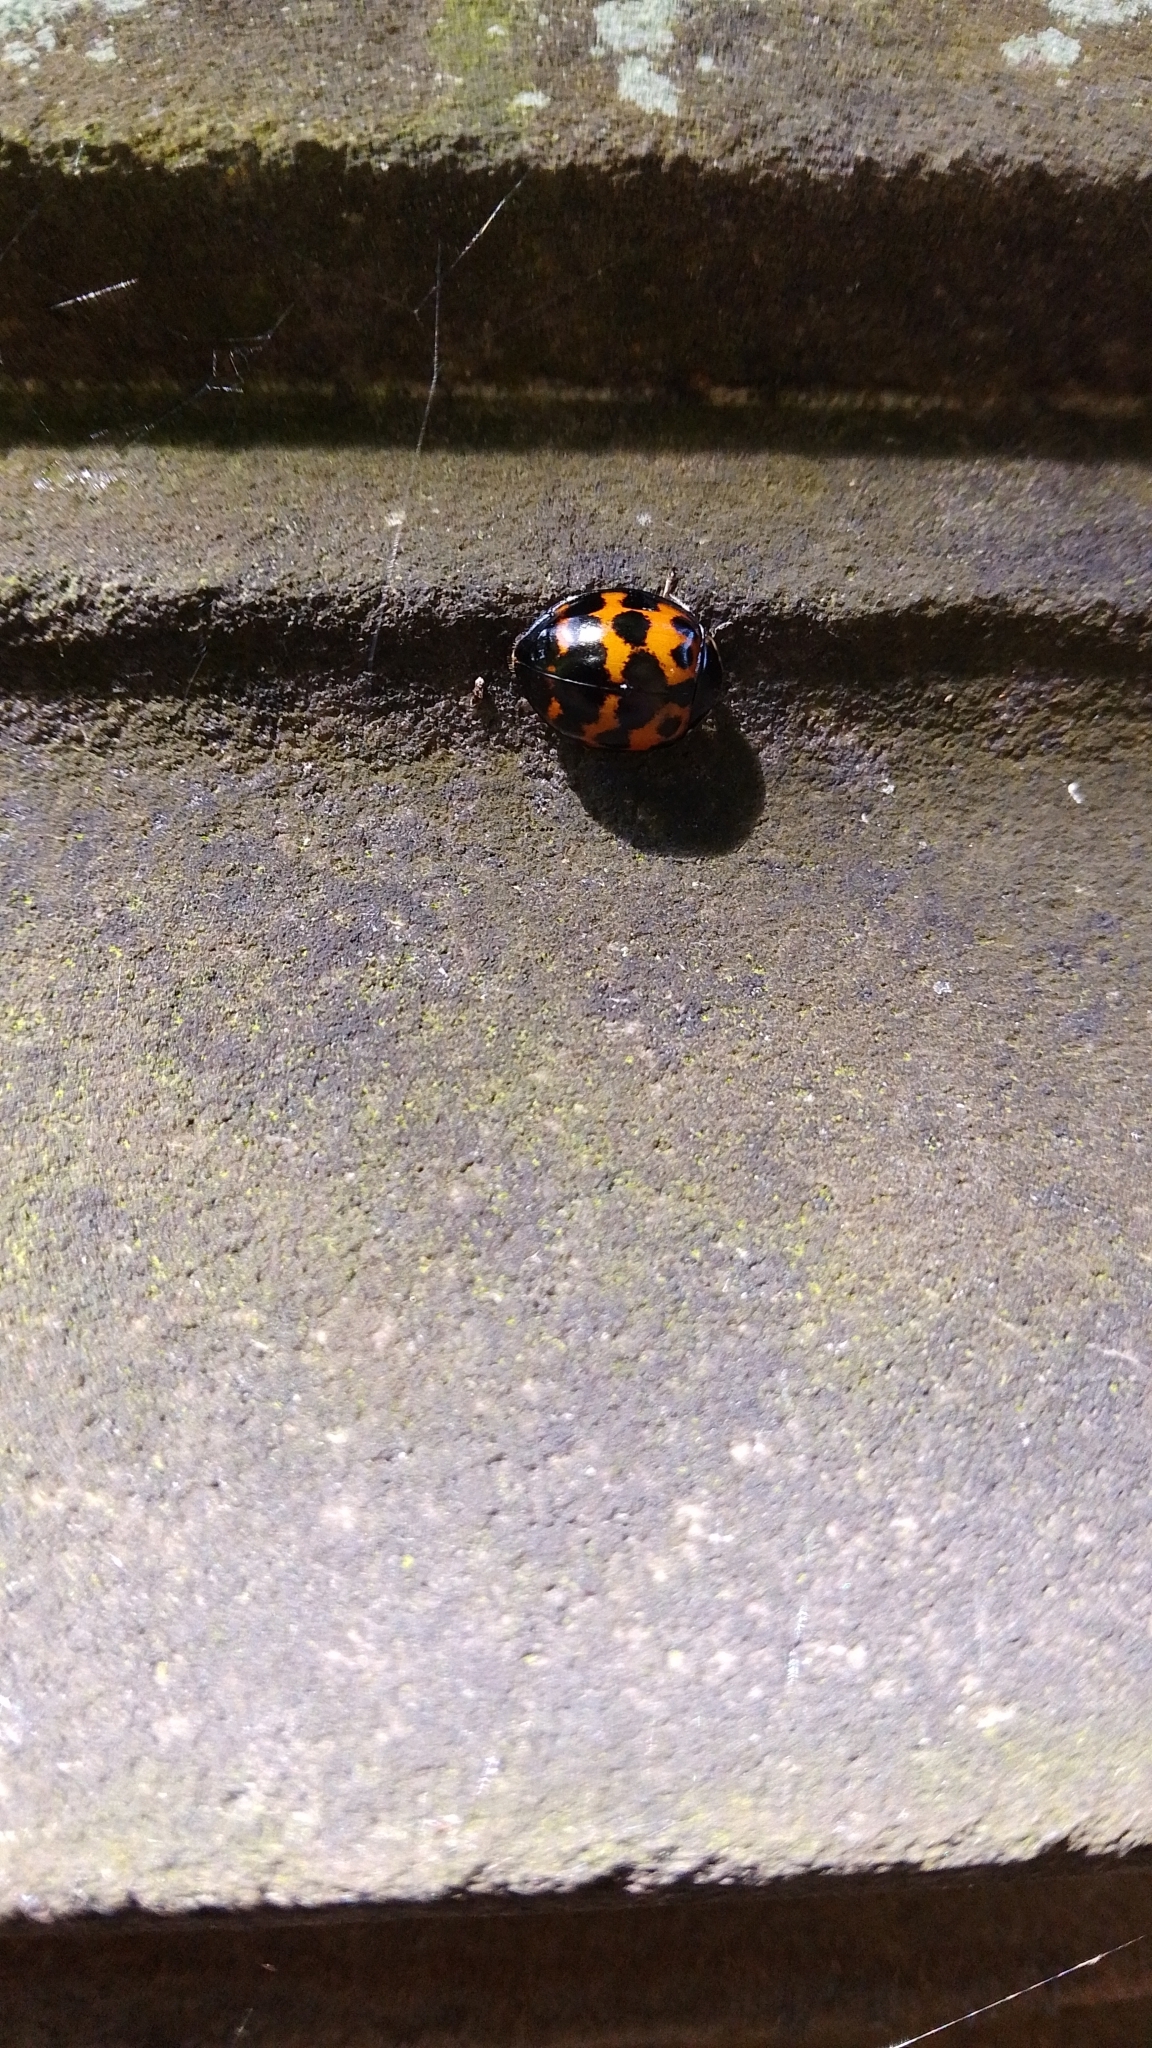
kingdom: Animalia
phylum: Arthropoda
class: Insecta
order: Coleoptera
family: Coccinellidae
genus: Harmonia
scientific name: Harmonia axyridis
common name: Harlequin ladybird
